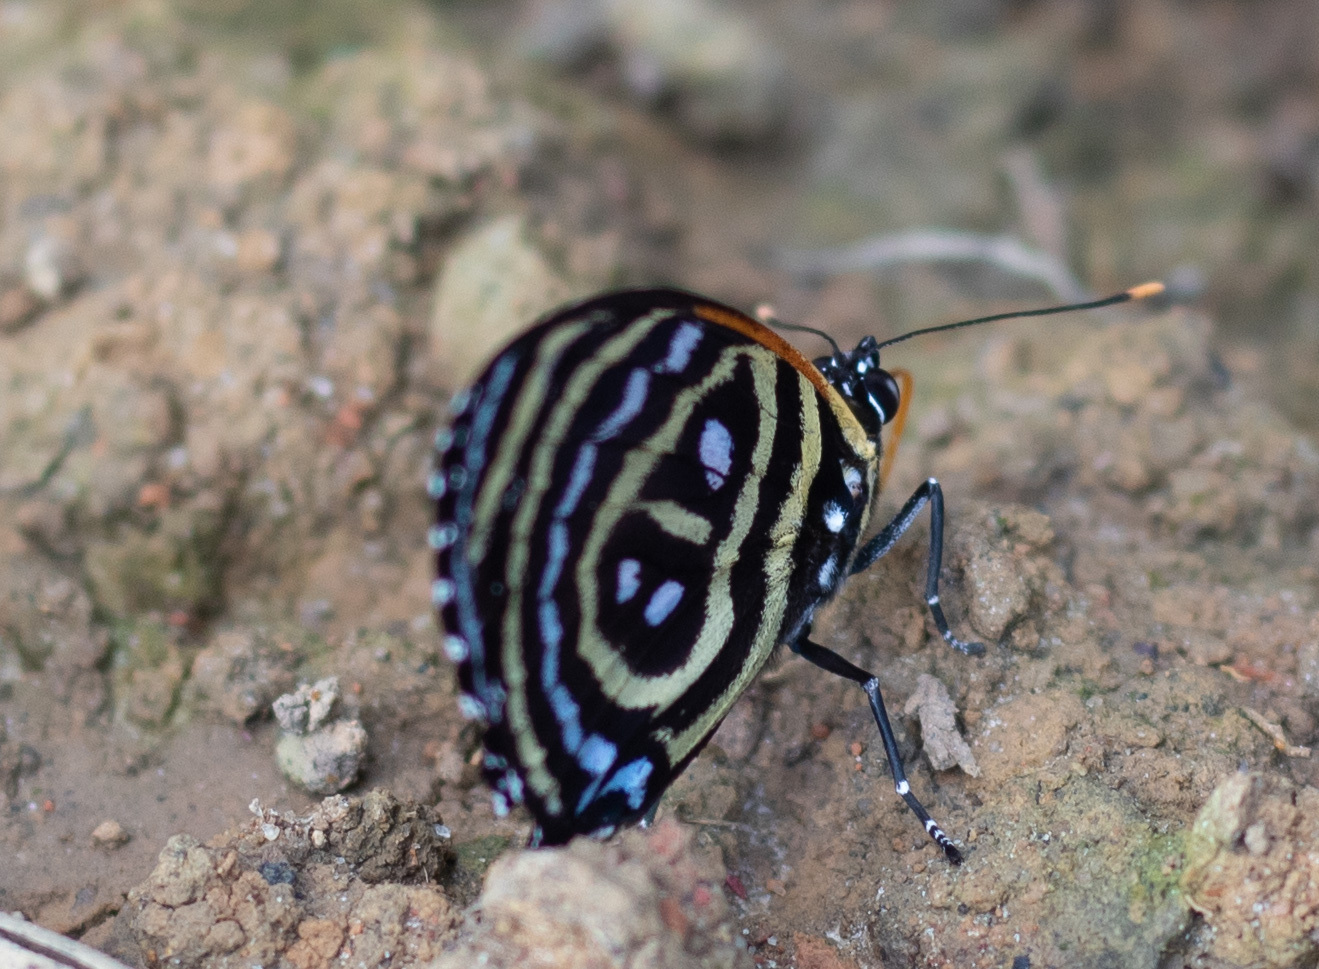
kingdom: Animalia
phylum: Arthropoda
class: Insecta
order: Lepidoptera
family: Nymphalidae
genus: Catagramma
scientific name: Catagramma Callicore excelsior
